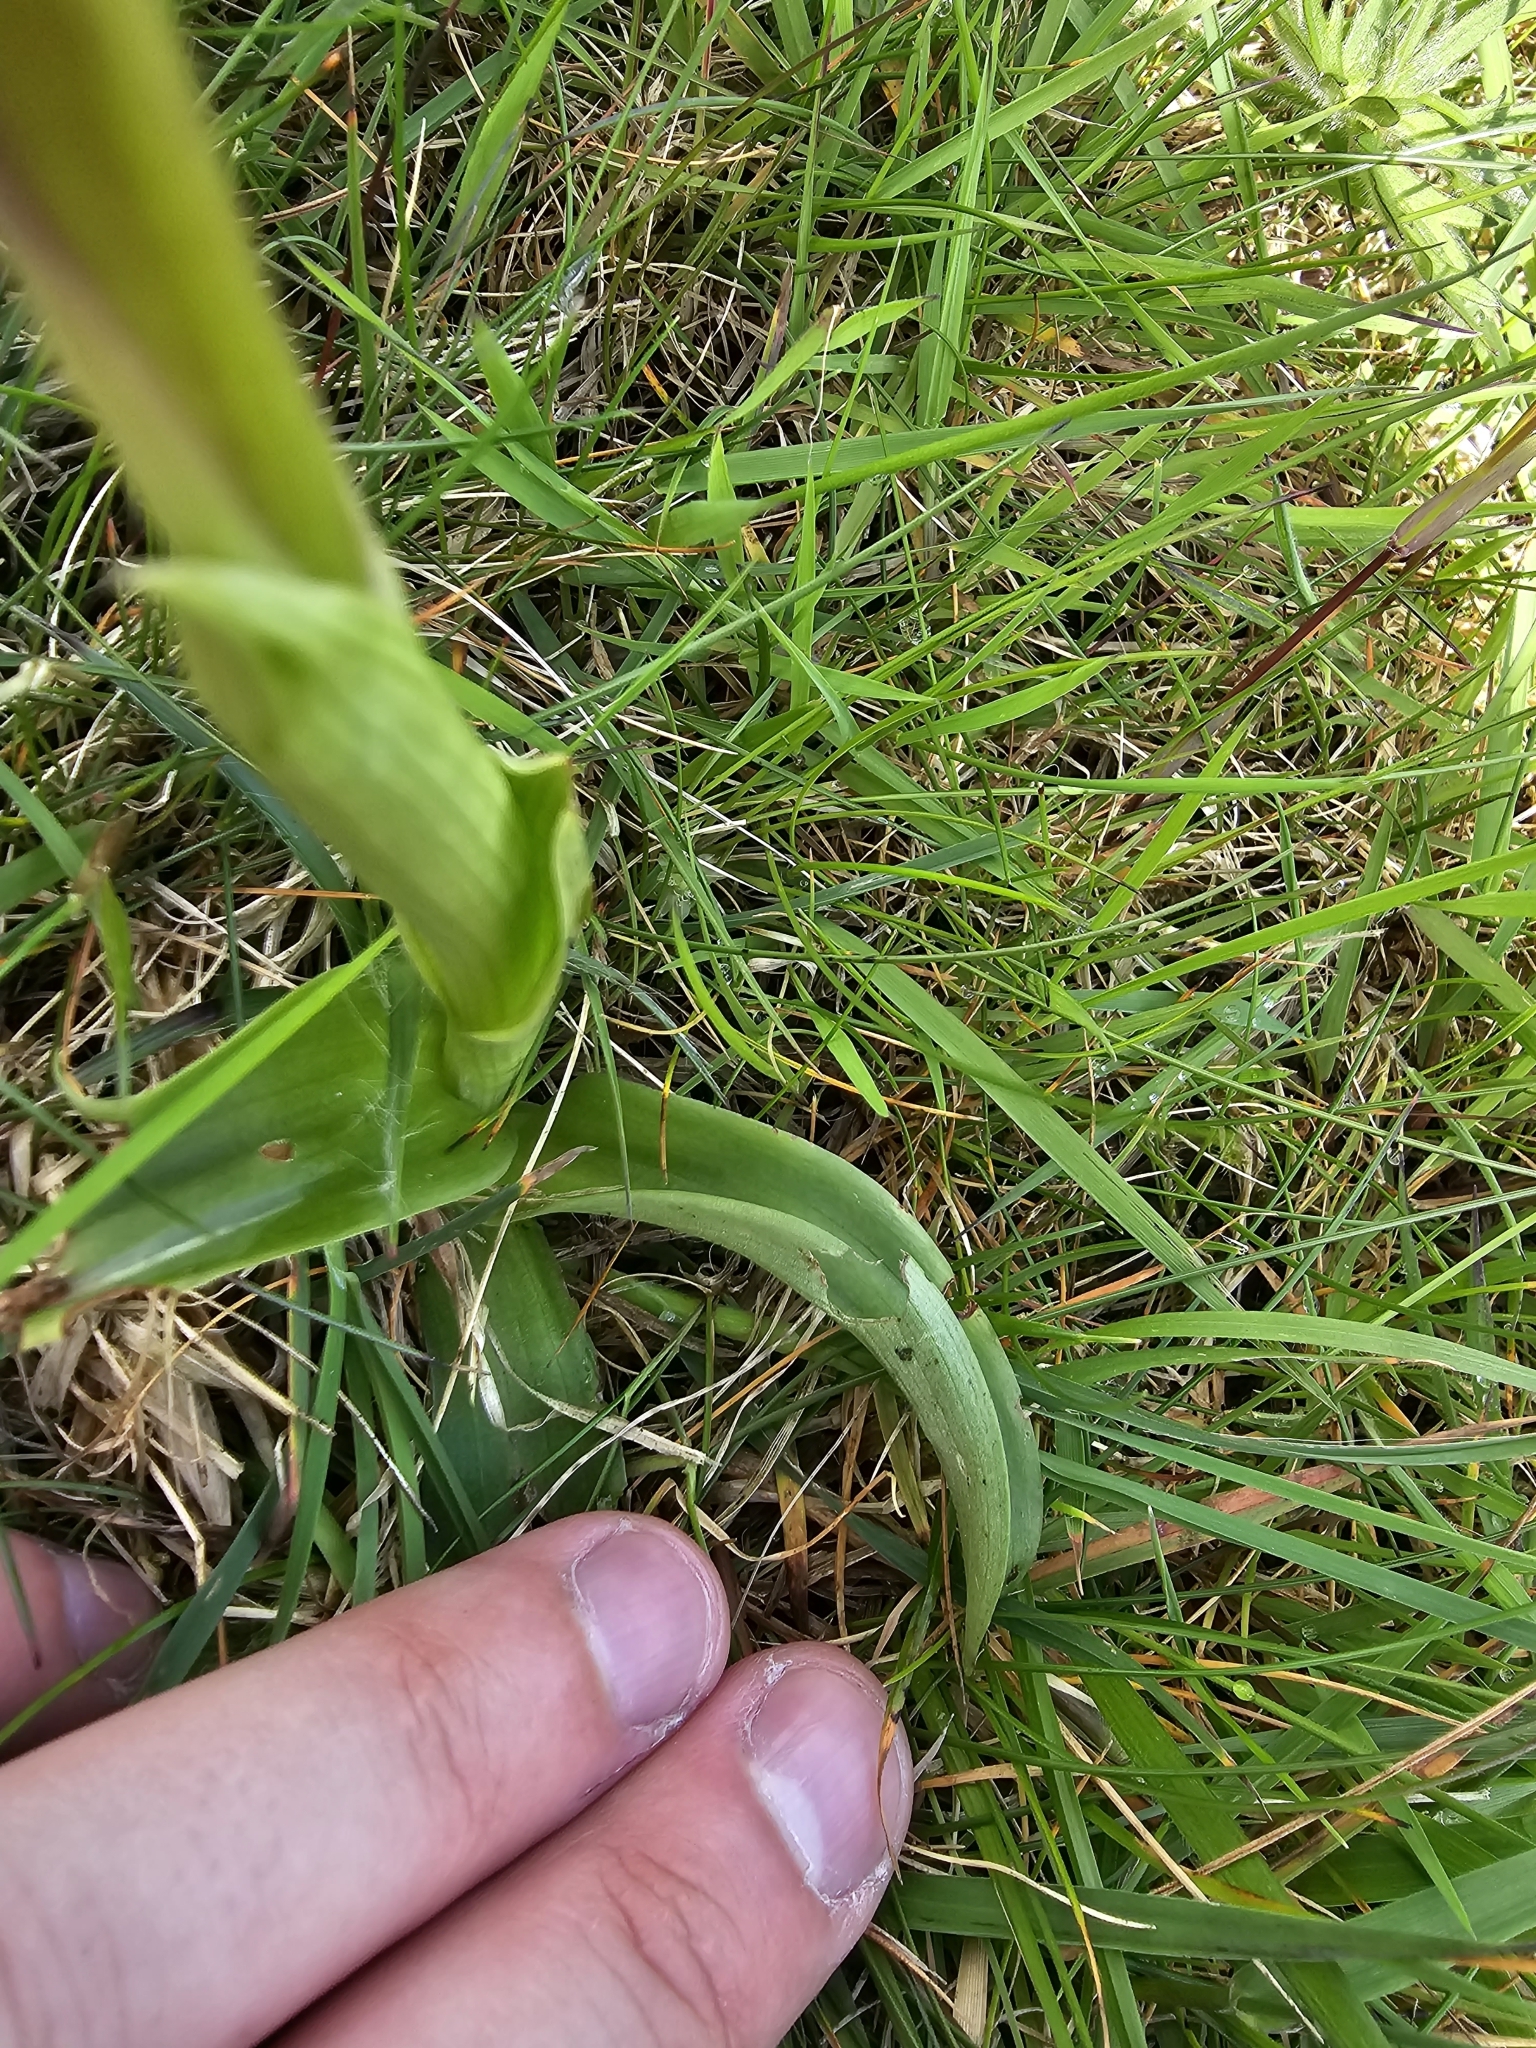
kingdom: Plantae
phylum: Tracheophyta
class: Liliopsida
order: Asparagales
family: Orchidaceae
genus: Orchis
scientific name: Orchis mascula
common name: Early-purple orchid
